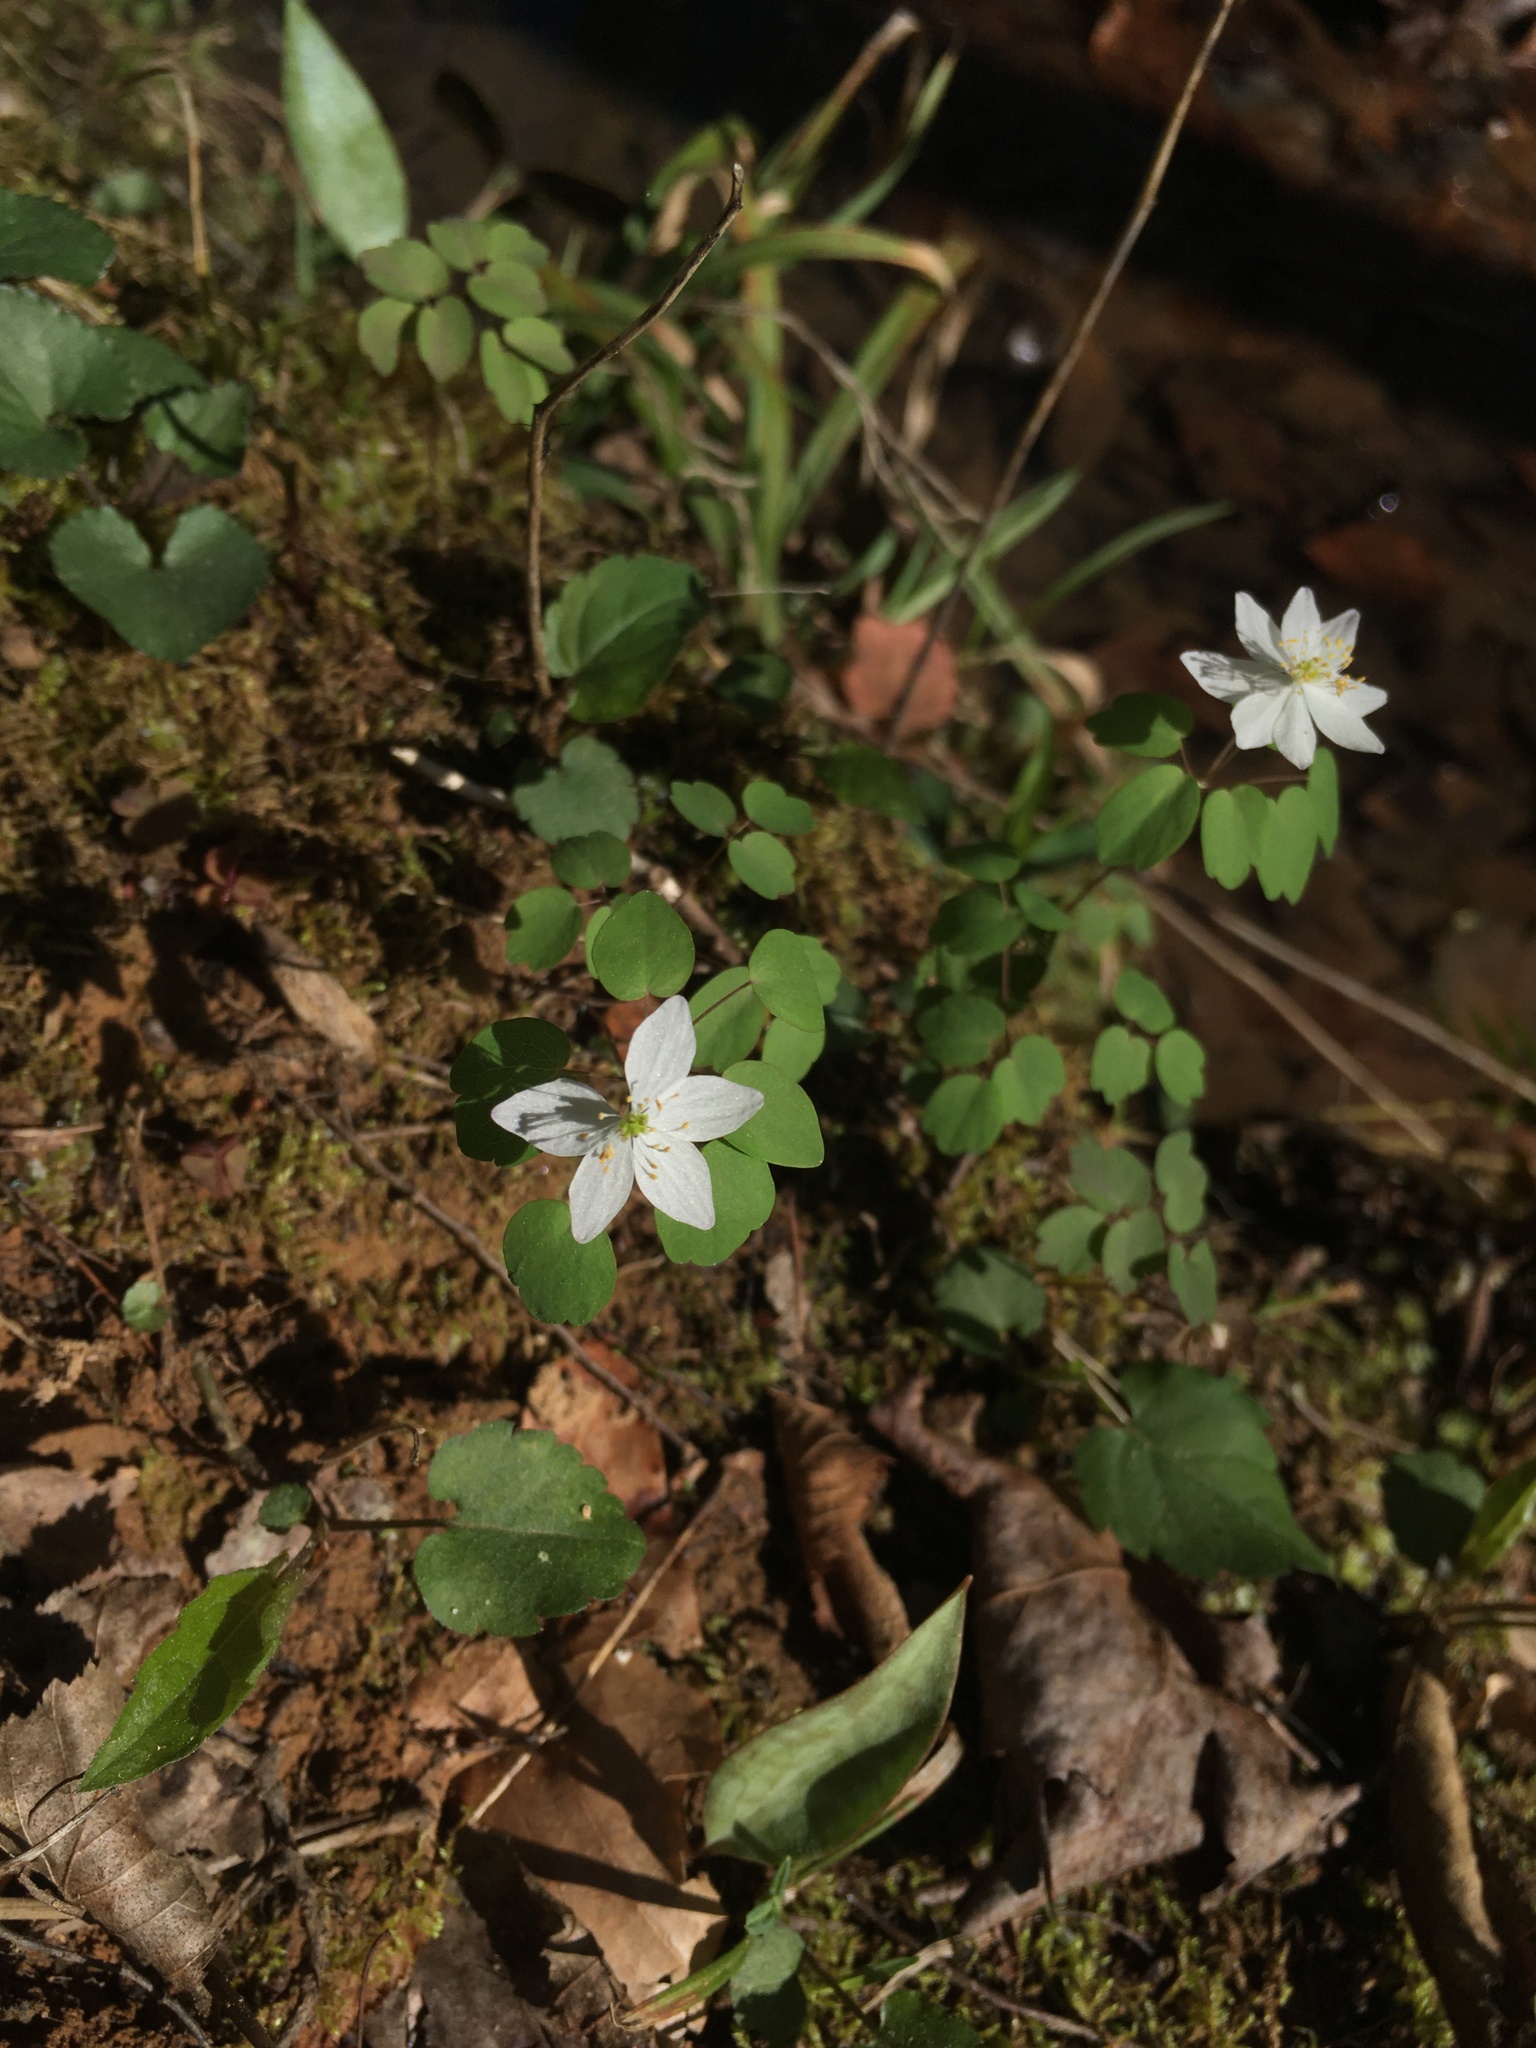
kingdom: Plantae
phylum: Tracheophyta
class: Magnoliopsida
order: Ranunculales
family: Ranunculaceae
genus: Thalictrum
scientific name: Thalictrum thalictroides
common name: Rue-anemone
